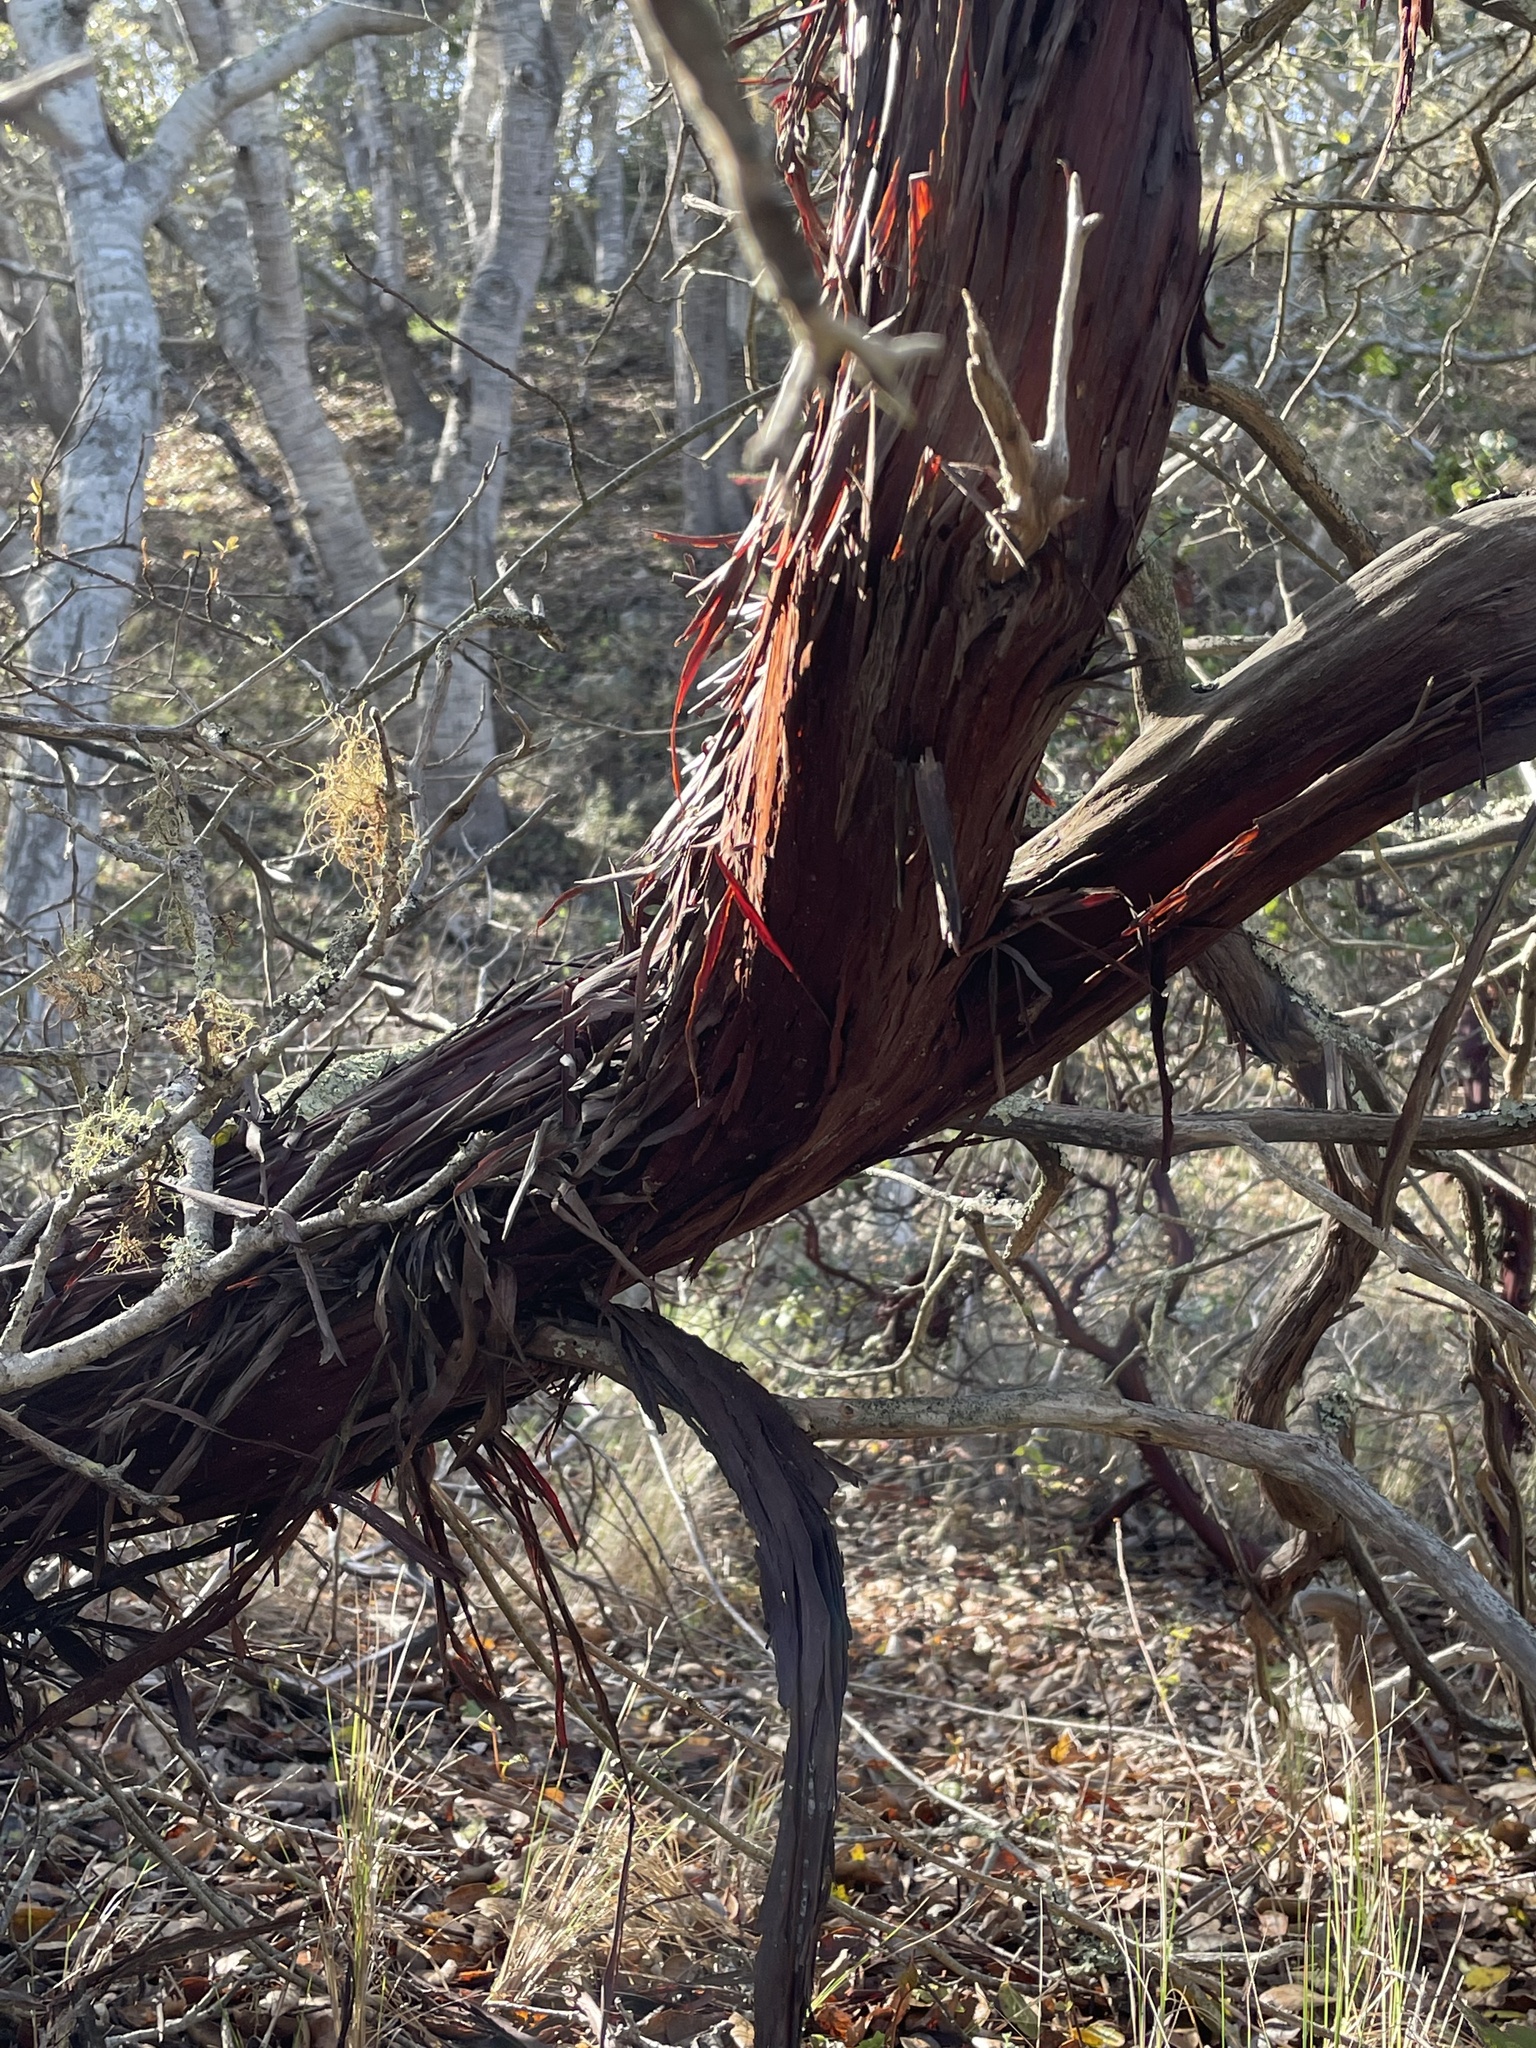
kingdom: Plantae
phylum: Tracheophyta
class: Magnoliopsida
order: Ericales
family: Ericaceae
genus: Arctostaphylos
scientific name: Arctostaphylos osoensis
